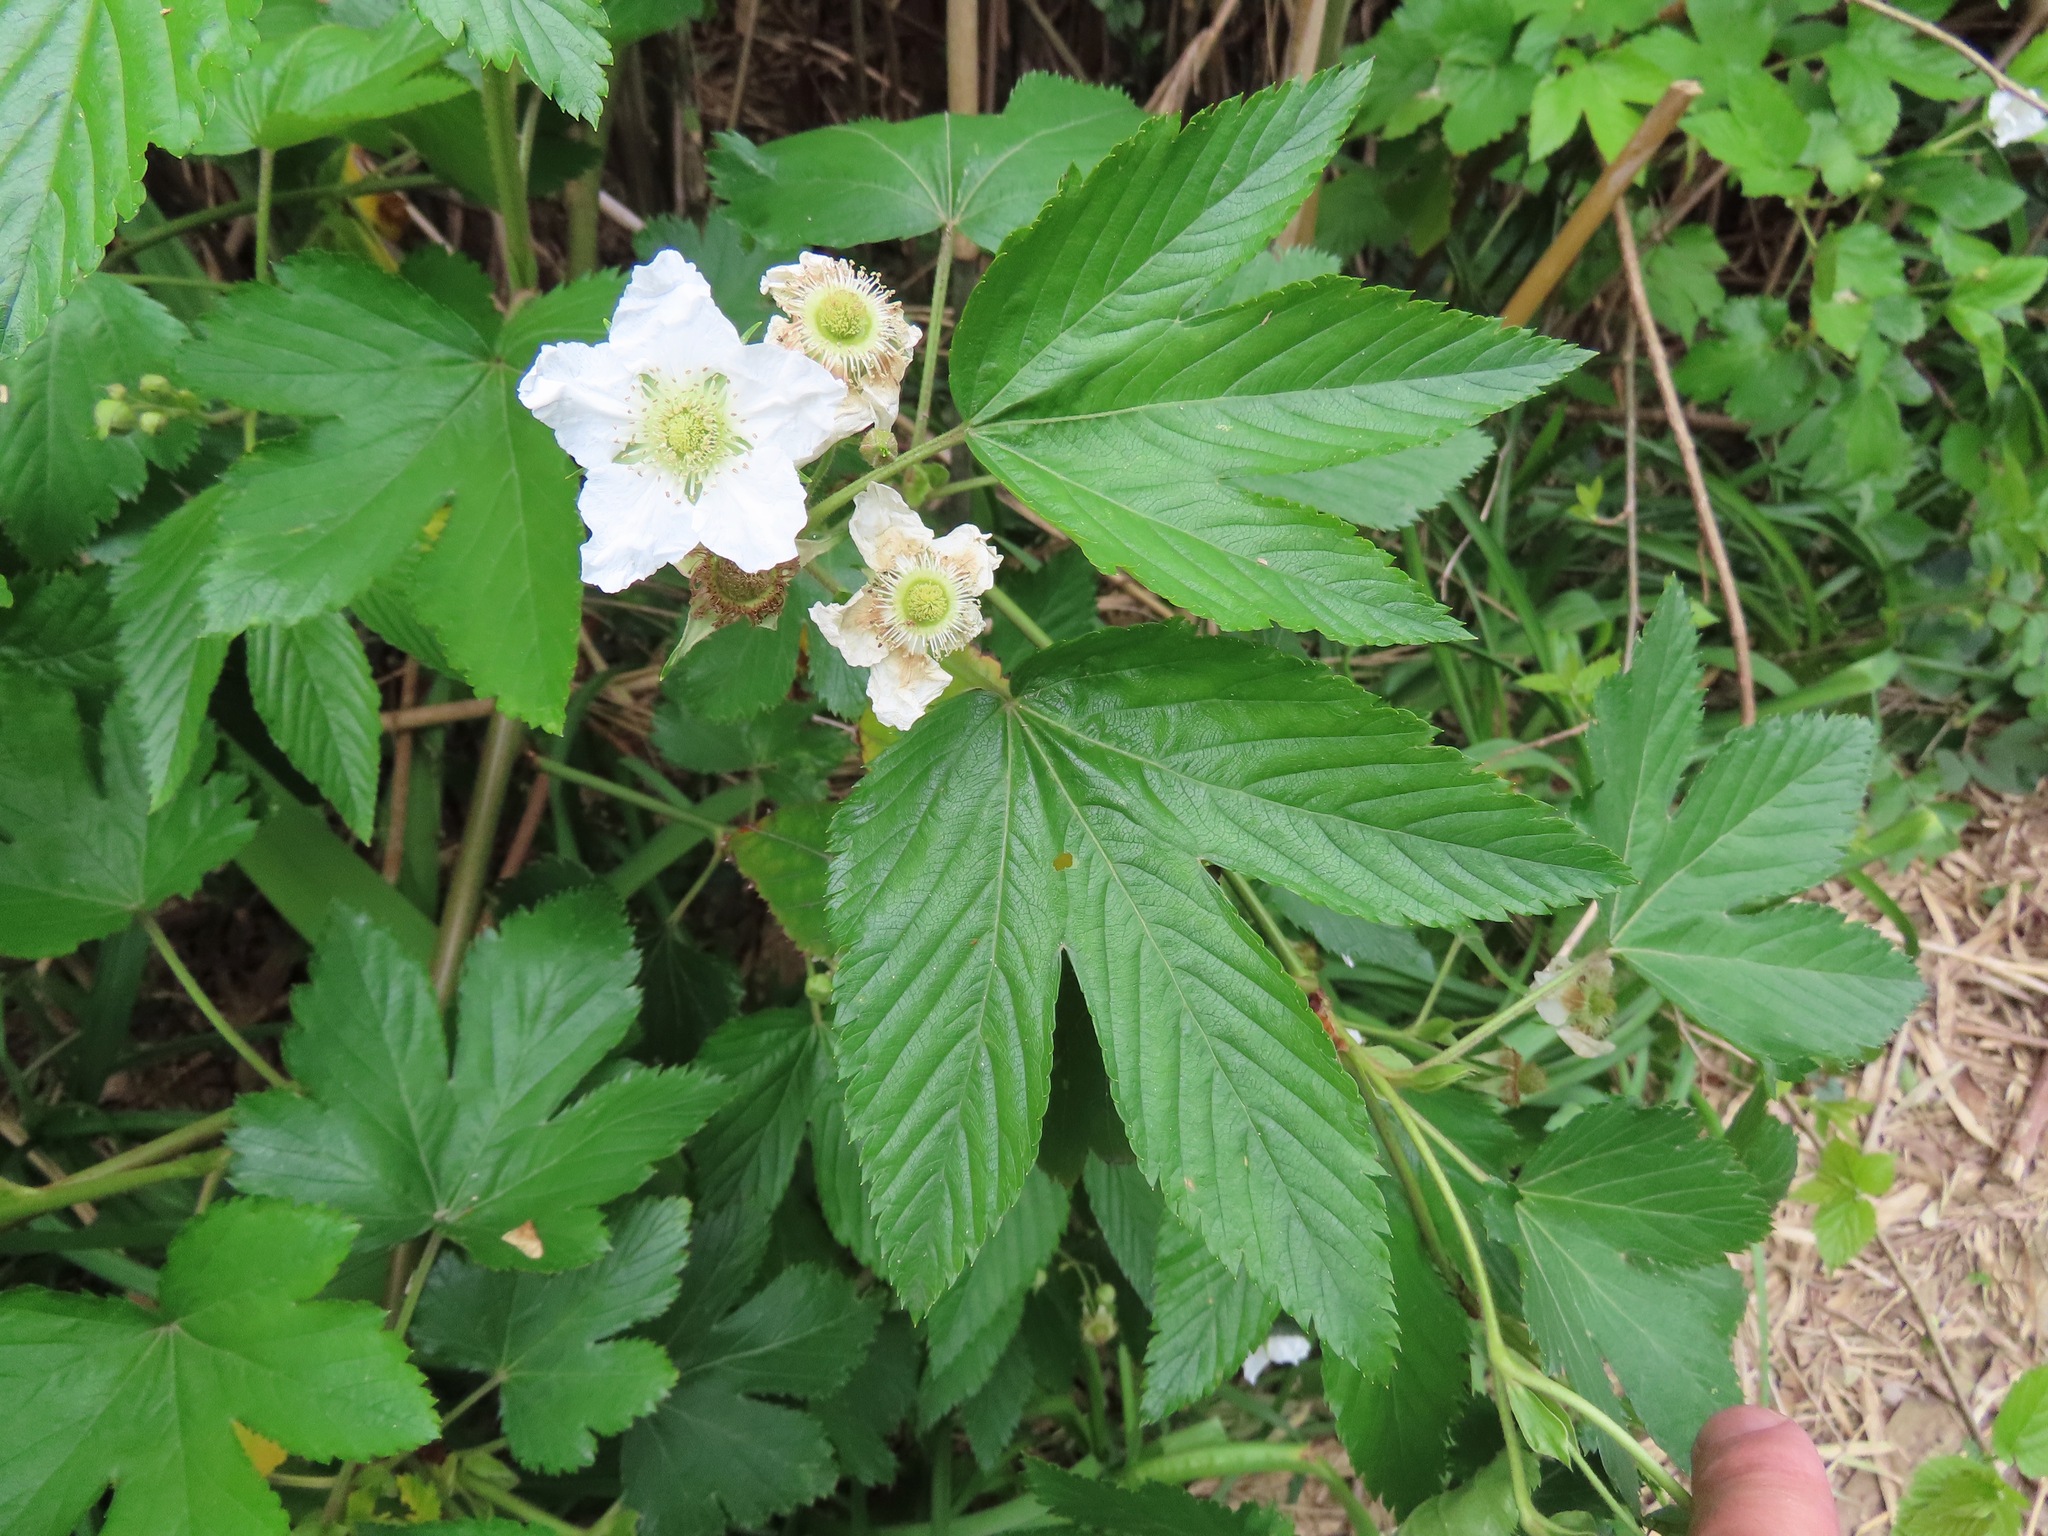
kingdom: Plantae
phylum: Tracheophyta
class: Magnoliopsida
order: Rosales
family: Rosaceae
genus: Rubus
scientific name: Rubus trifidus
